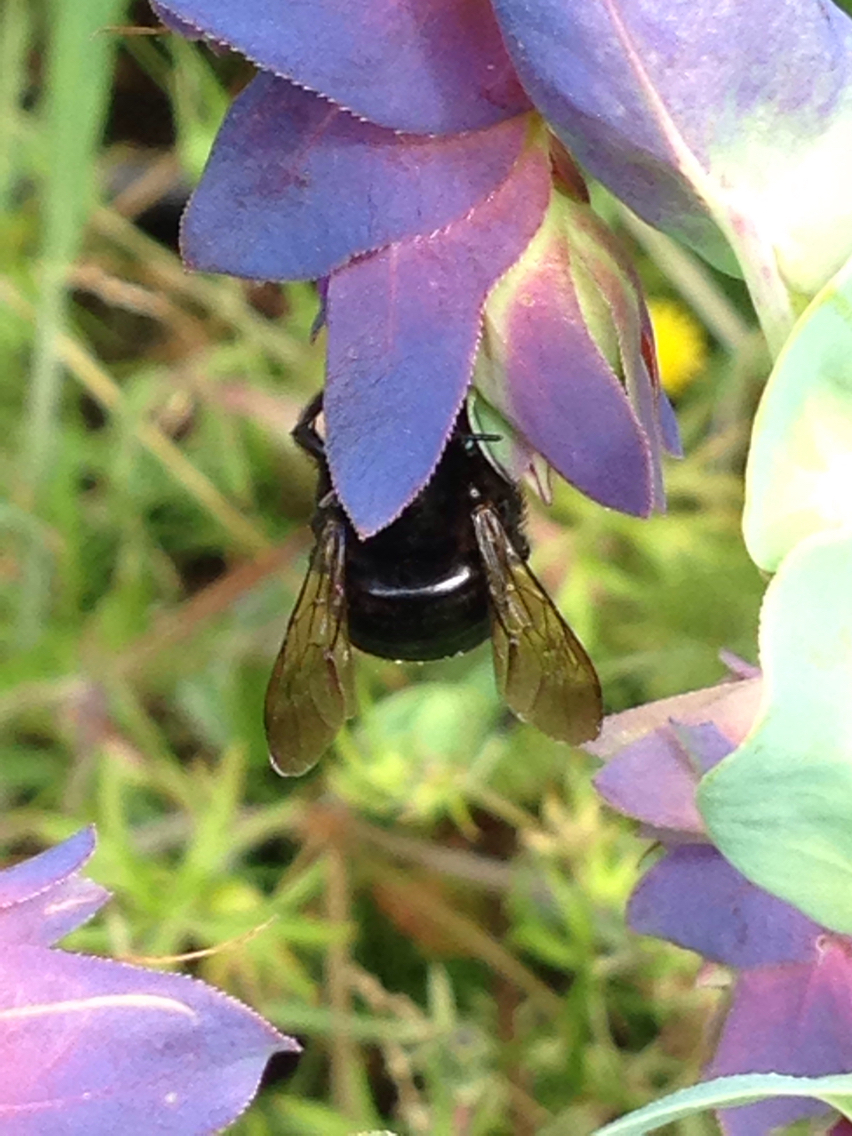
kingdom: Animalia
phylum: Arthropoda
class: Insecta
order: Hymenoptera
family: Apidae
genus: Xylocopa
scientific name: Xylocopa tabaniformis
